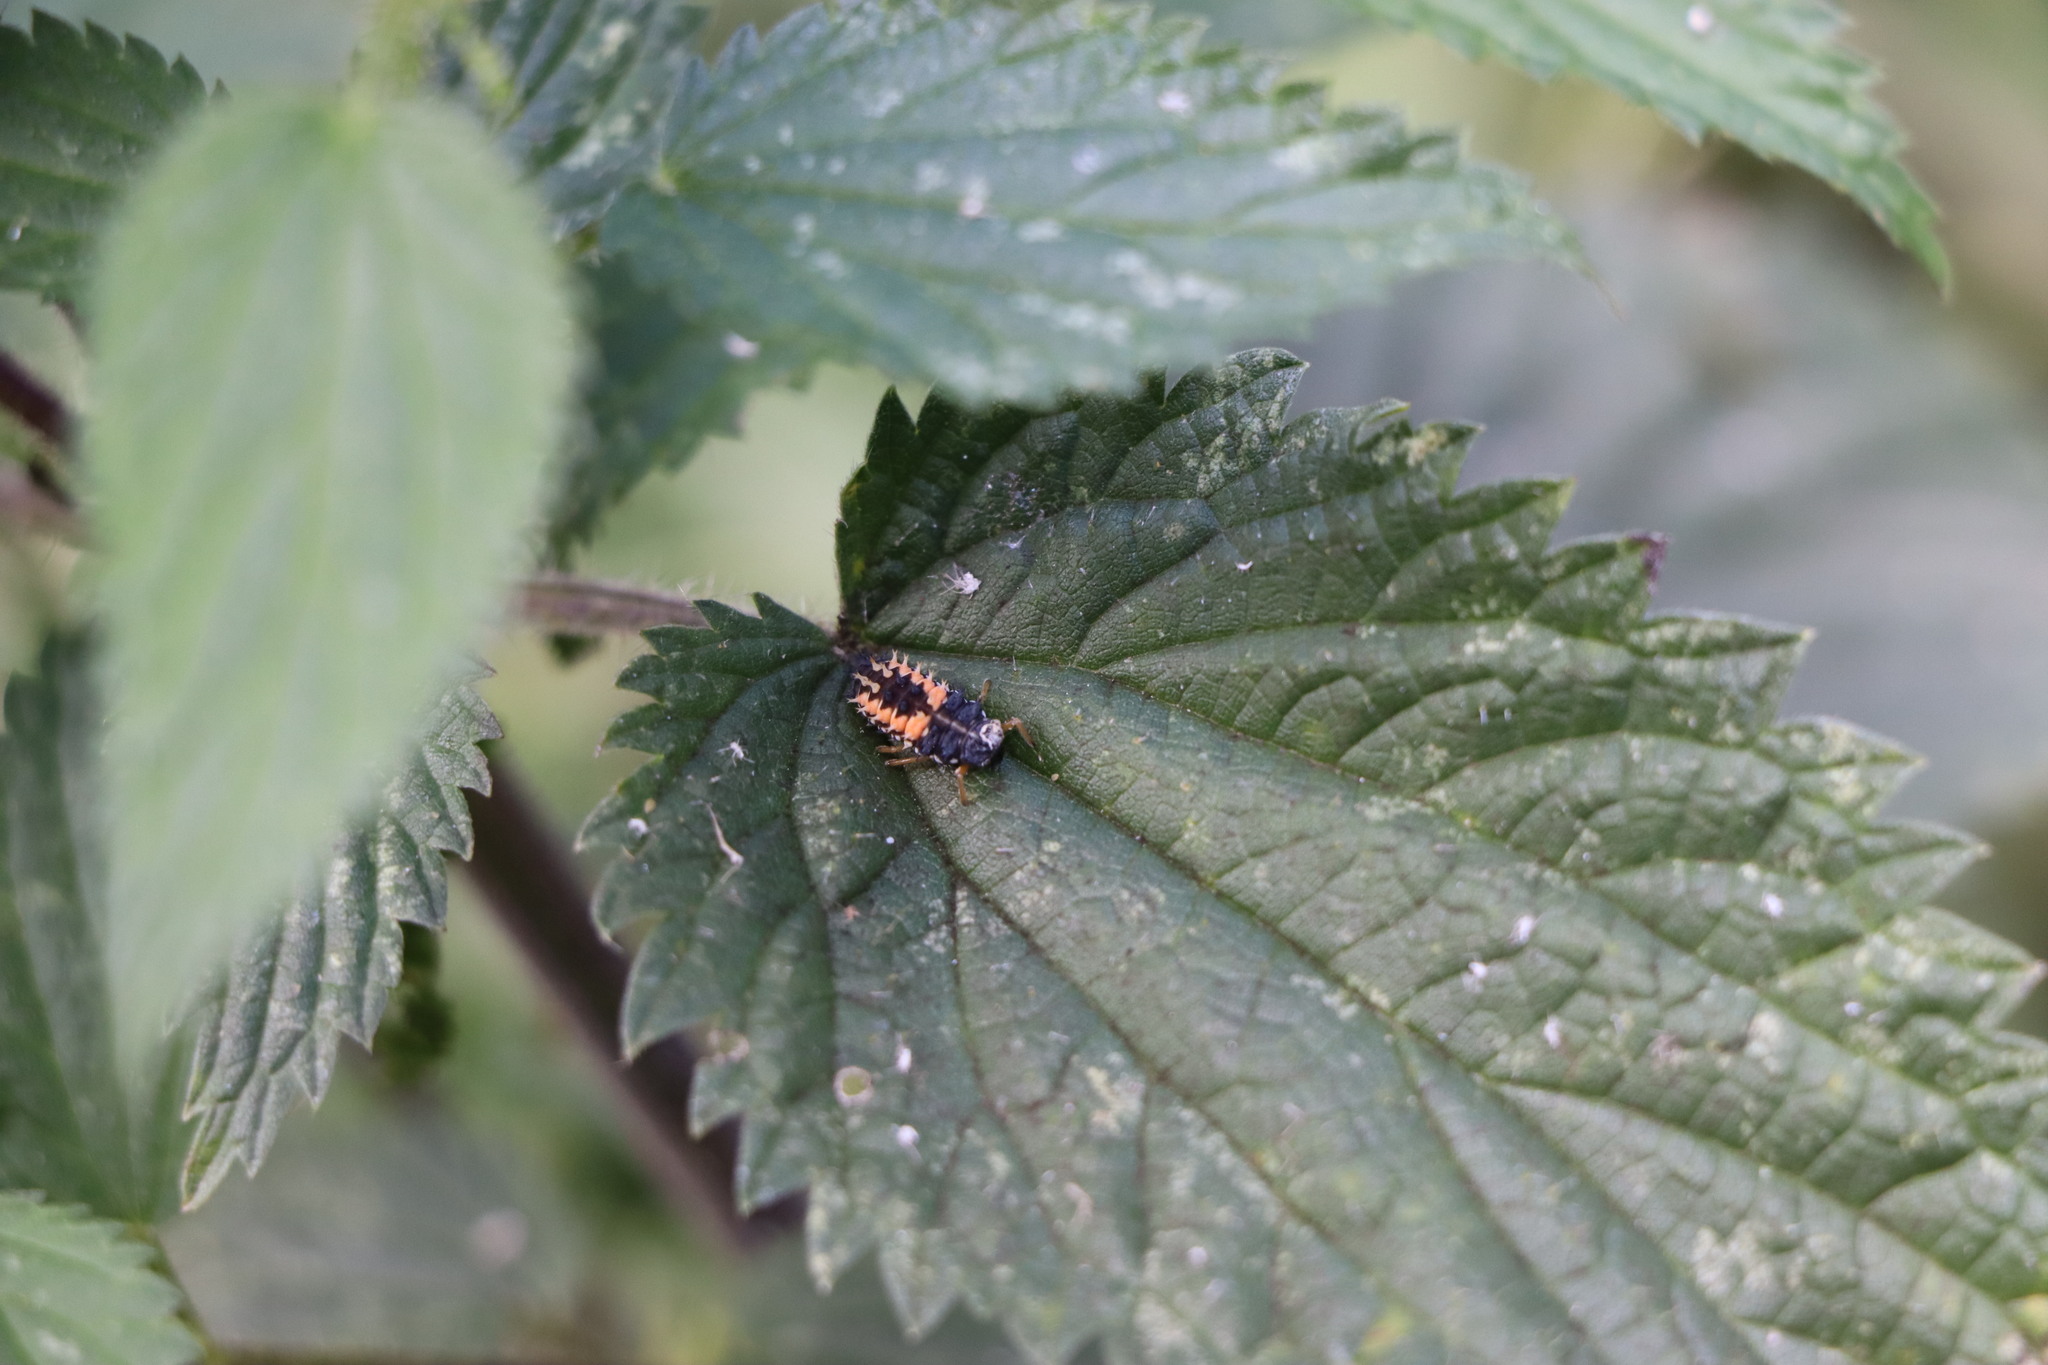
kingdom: Animalia
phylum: Arthropoda
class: Insecta
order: Coleoptera
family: Coccinellidae
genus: Harmonia
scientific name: Harmonia axyridis
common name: Harlequin ladybird
